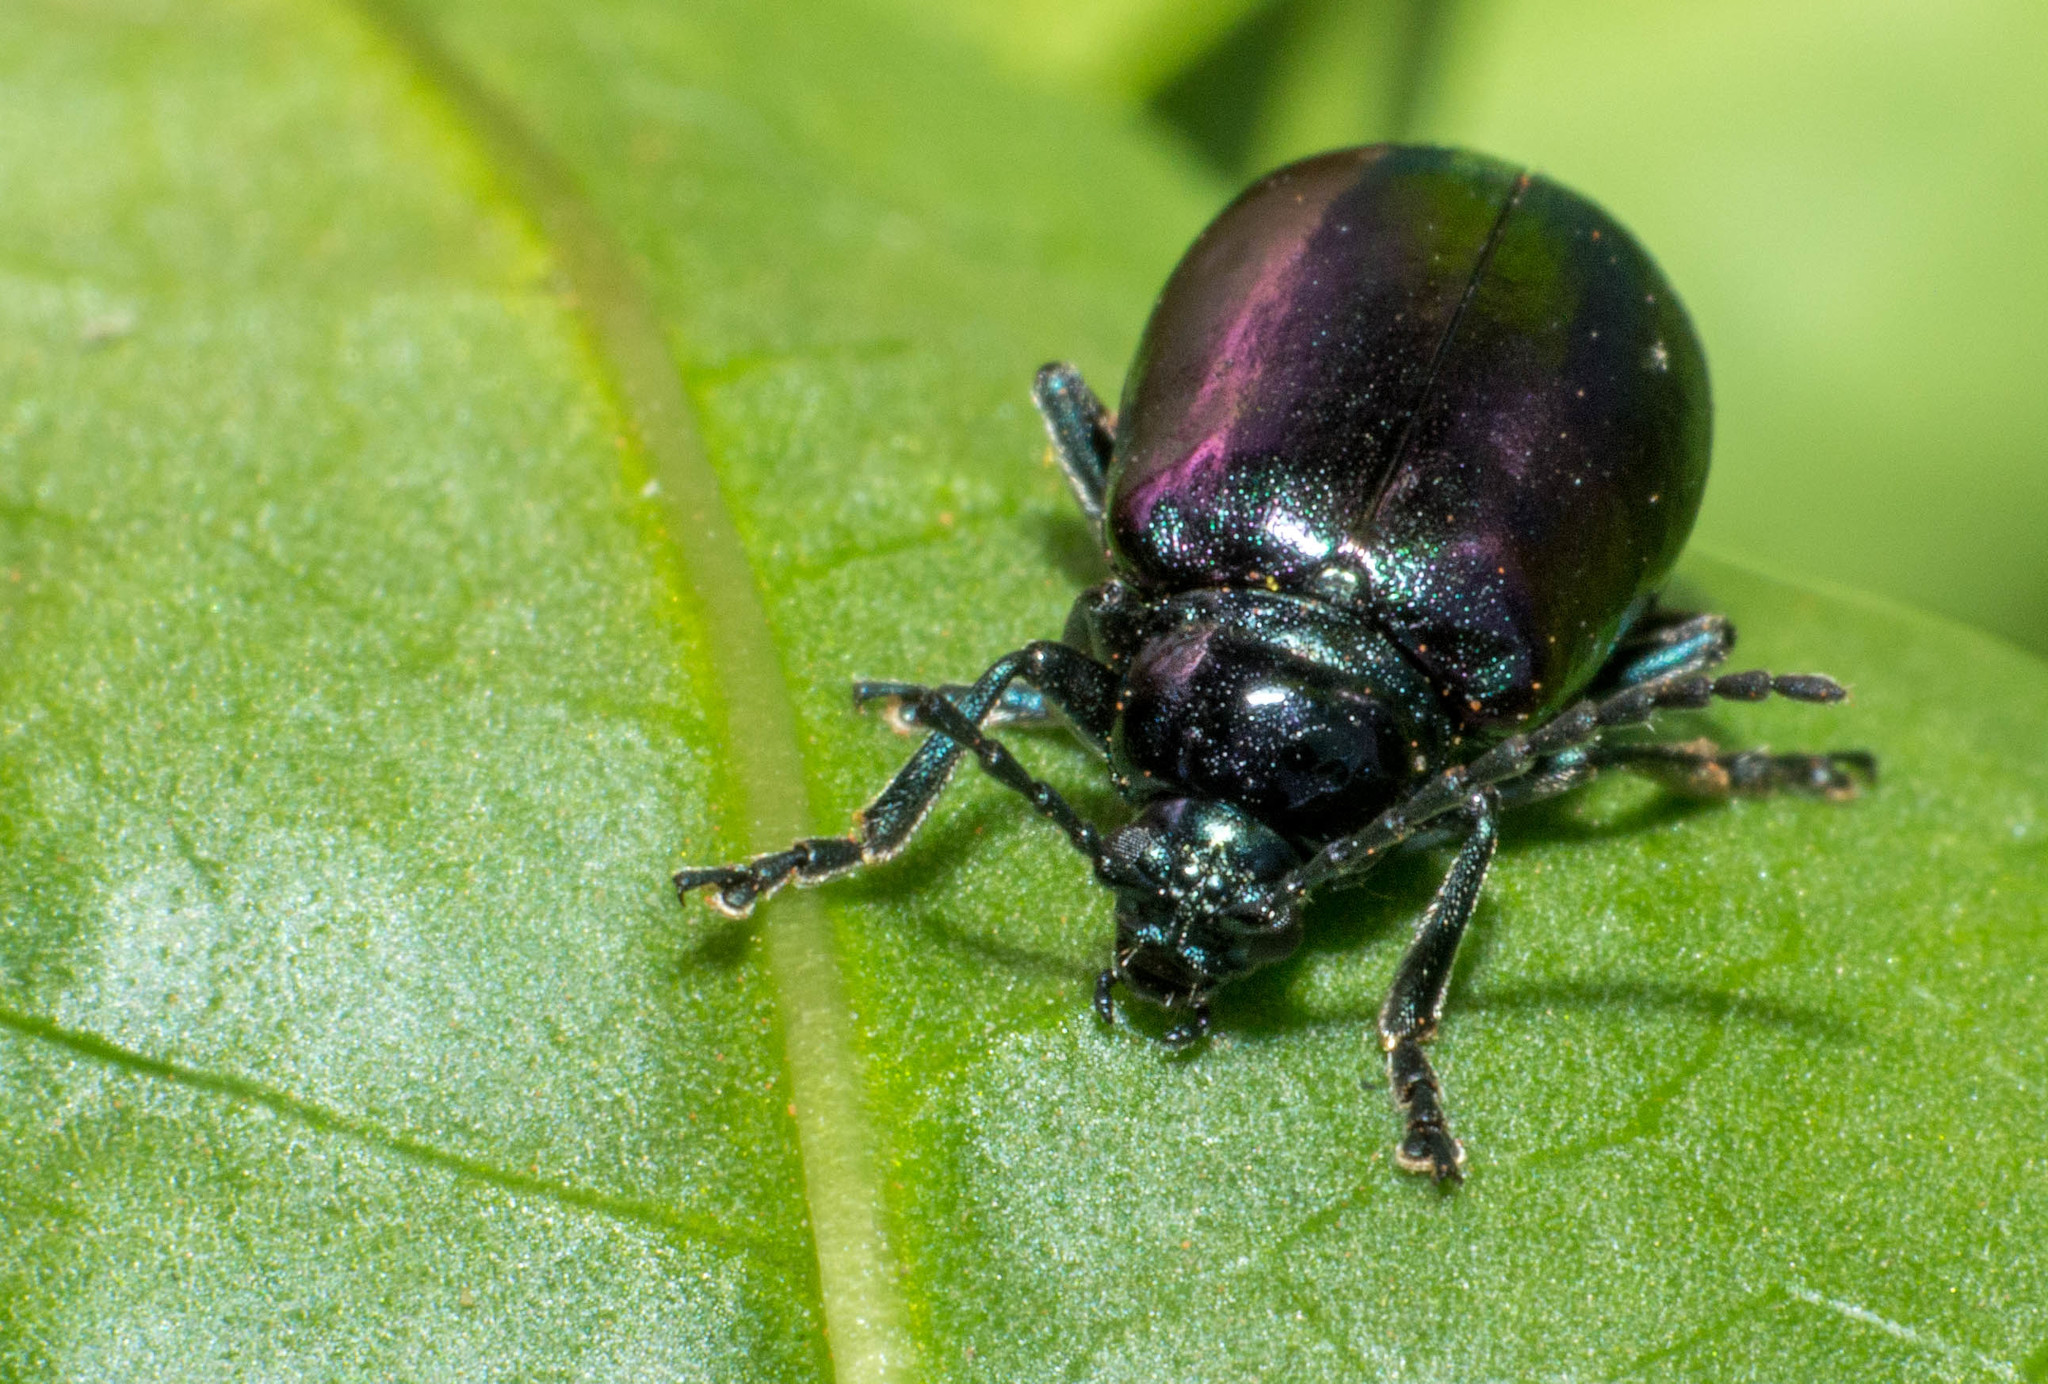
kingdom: Animalia
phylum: Arthropoda
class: Insecta
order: Coleoptera
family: Chrysomelidae
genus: Macrohaltica
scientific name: Macrohaltica
